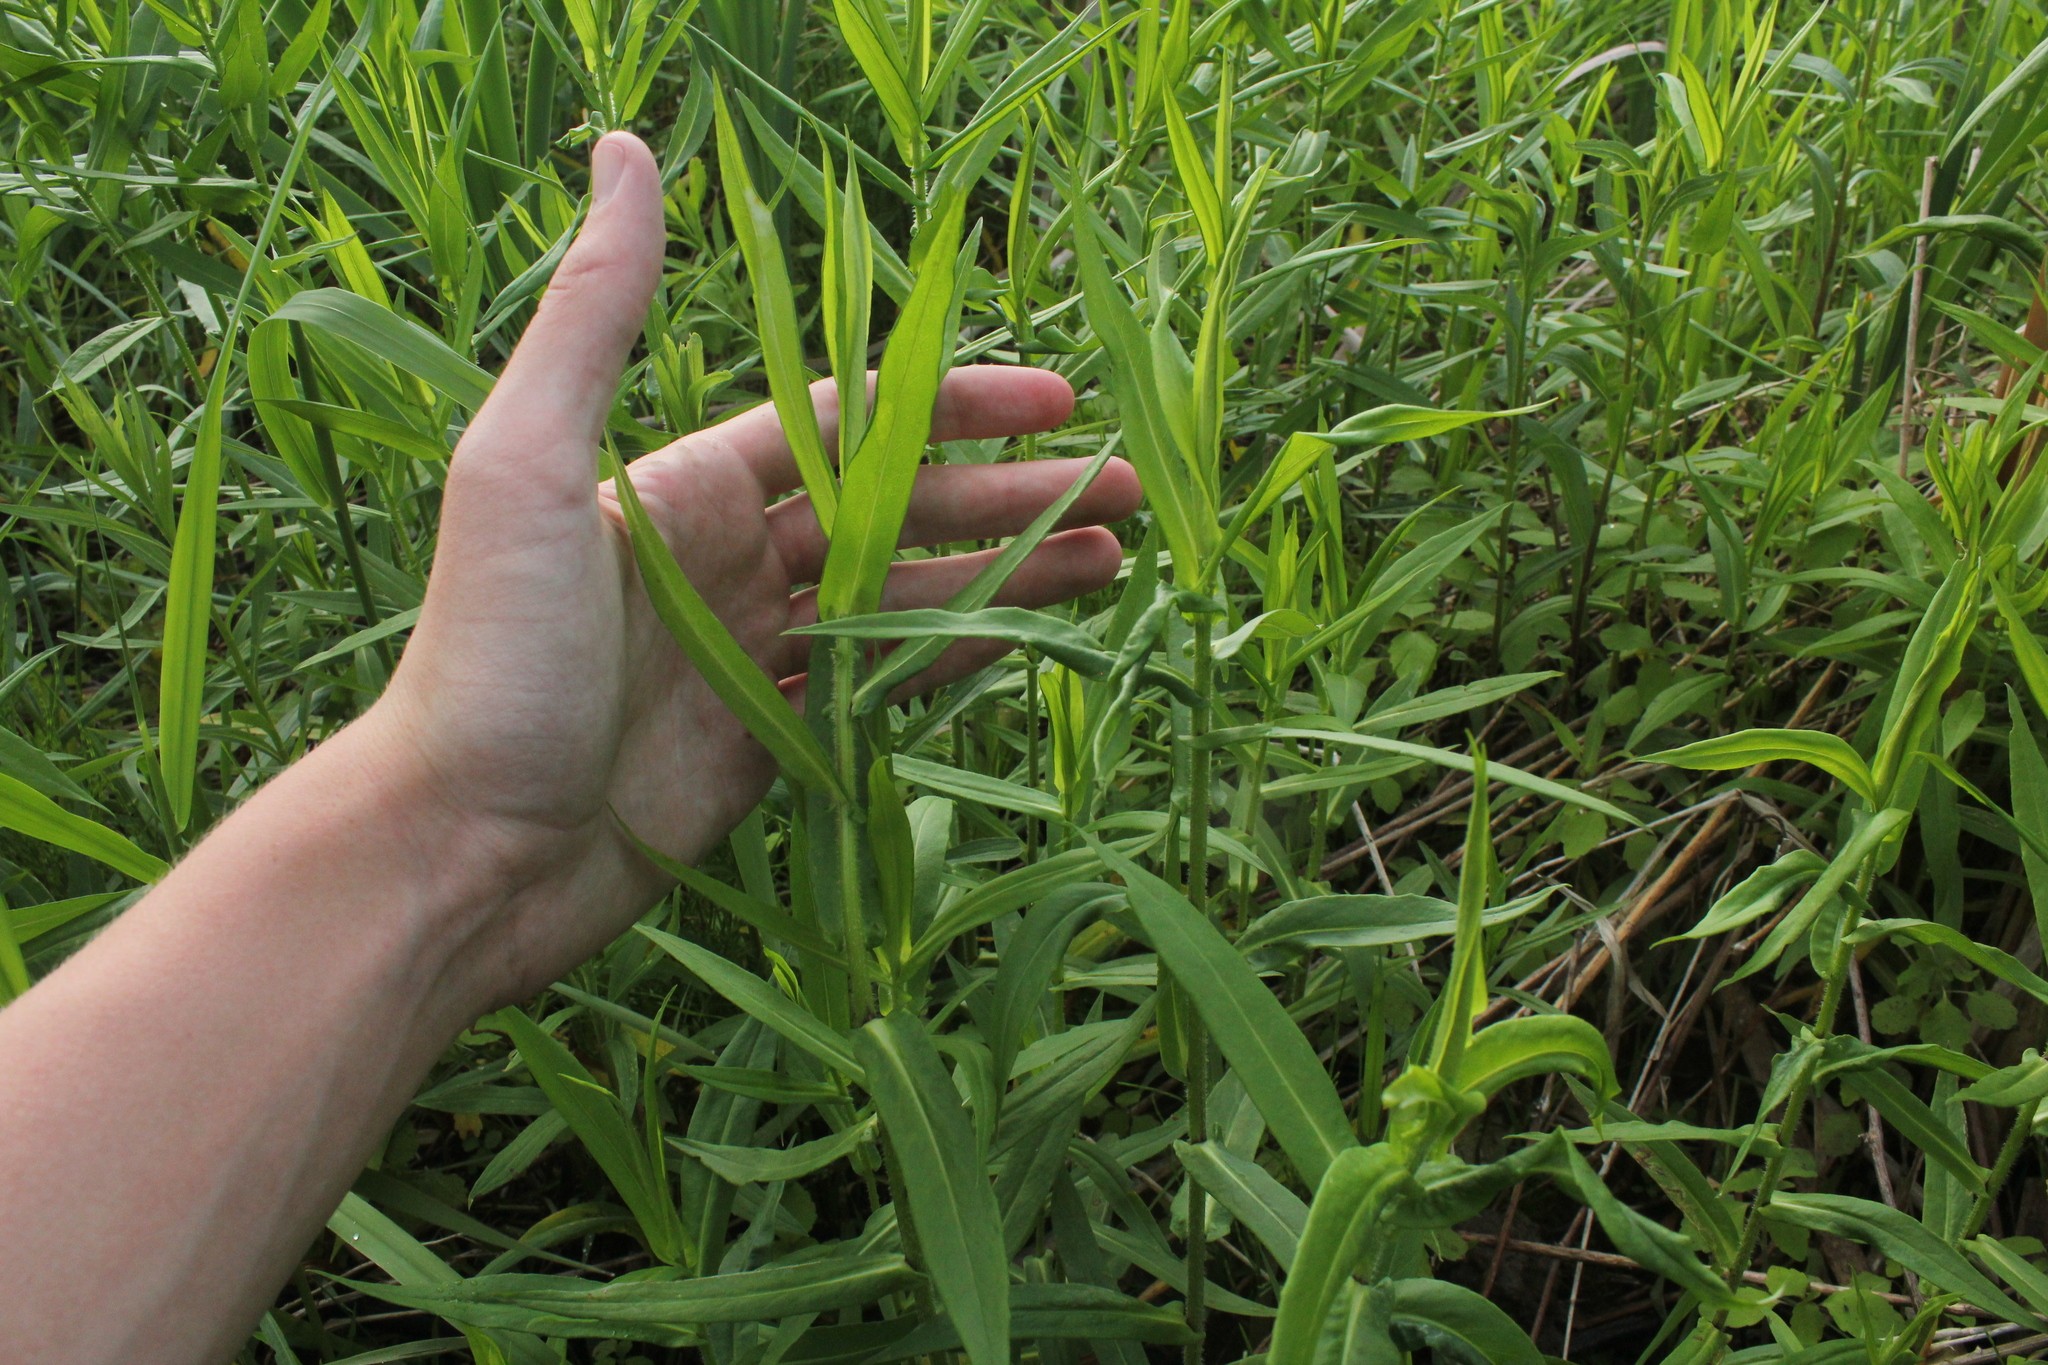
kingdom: Plantae
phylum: Tracheophyta
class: Magnoliopsida
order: Asterales
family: Asteraceae
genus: Symphyotrichum
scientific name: Symphyotrichum puniceum
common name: Bog aster
